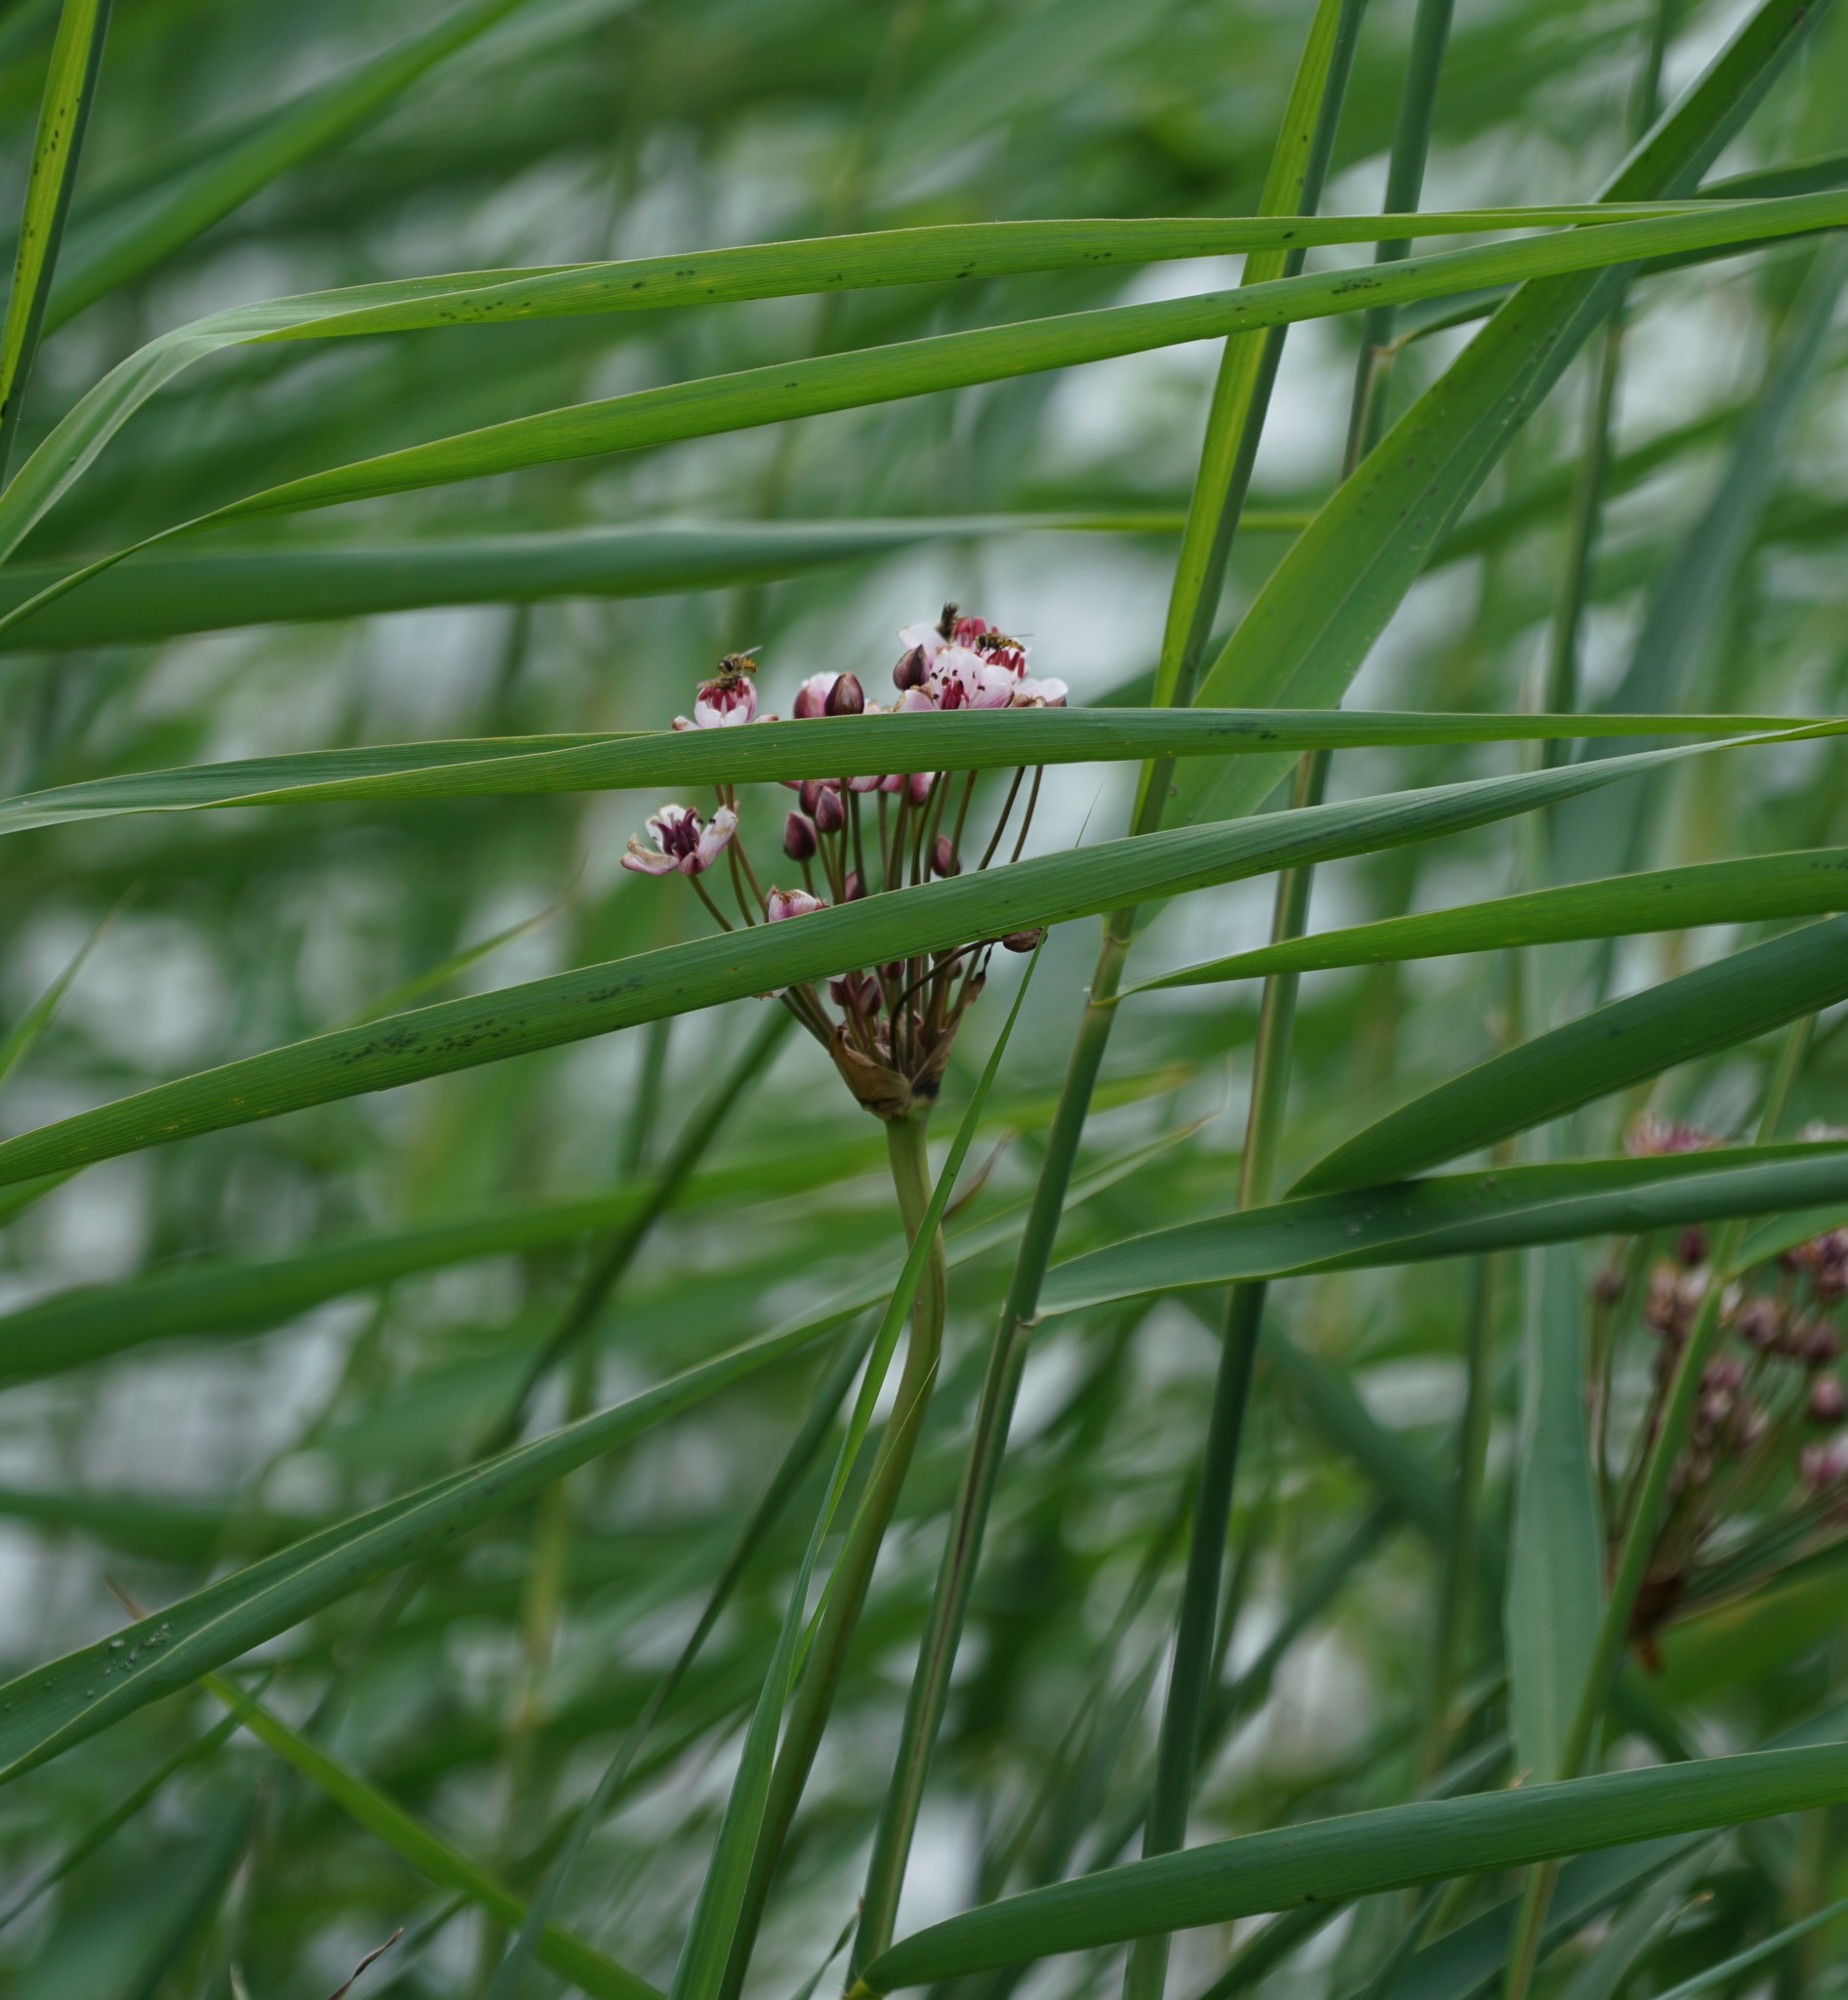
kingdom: Plantae
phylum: Tracheophyta
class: Liliopsida
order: Alismatales
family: Butomaceae
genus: Butomus
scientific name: Butomus umbellatus
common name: Flowering-rush
